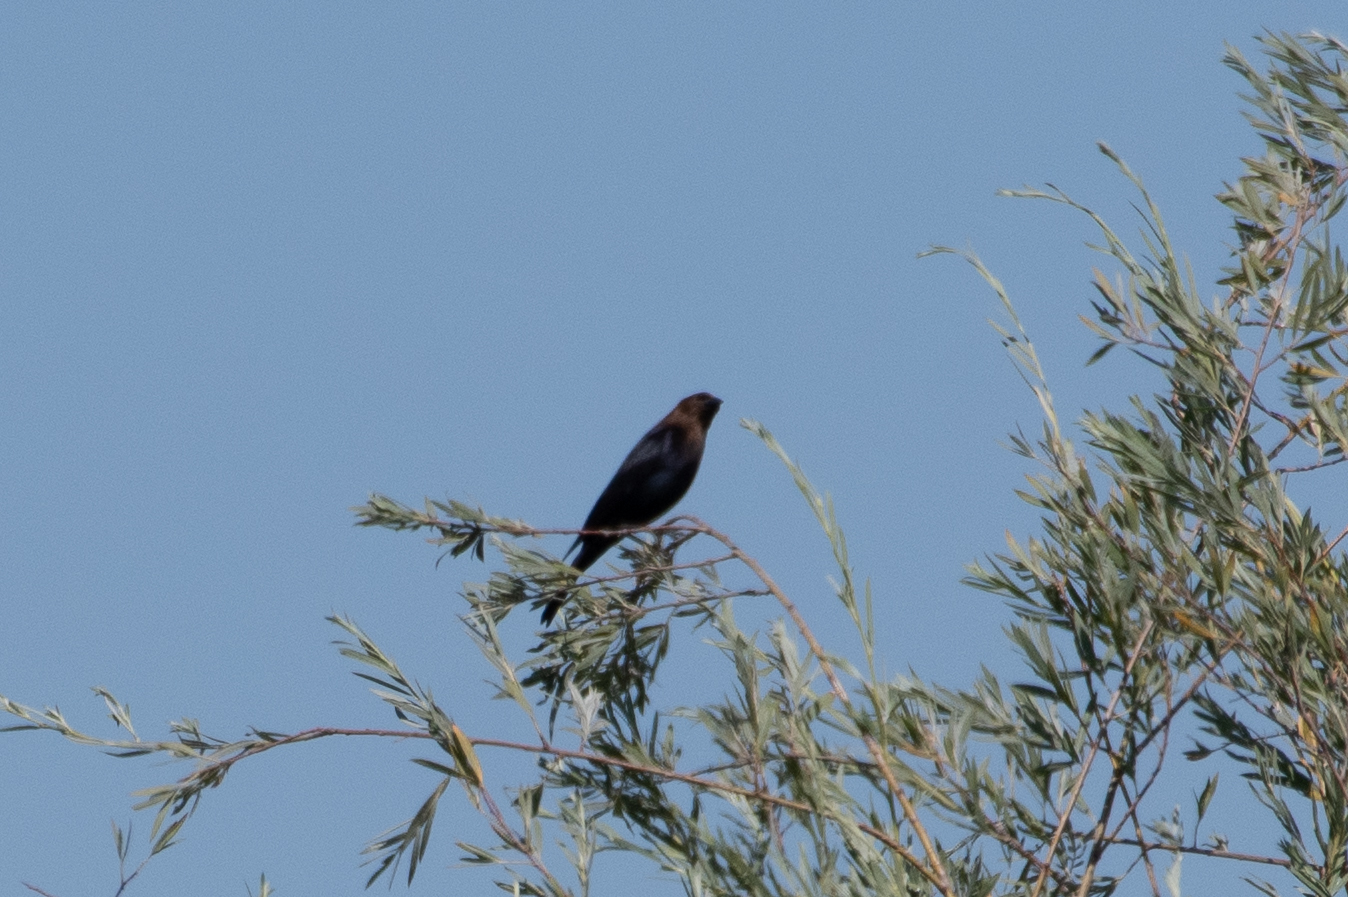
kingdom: Animalia
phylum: Chordata
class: Aves
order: Passeriformes
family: Icteridae
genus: Molothrus
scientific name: Molothrus ater
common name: Brown-headed cowbird
